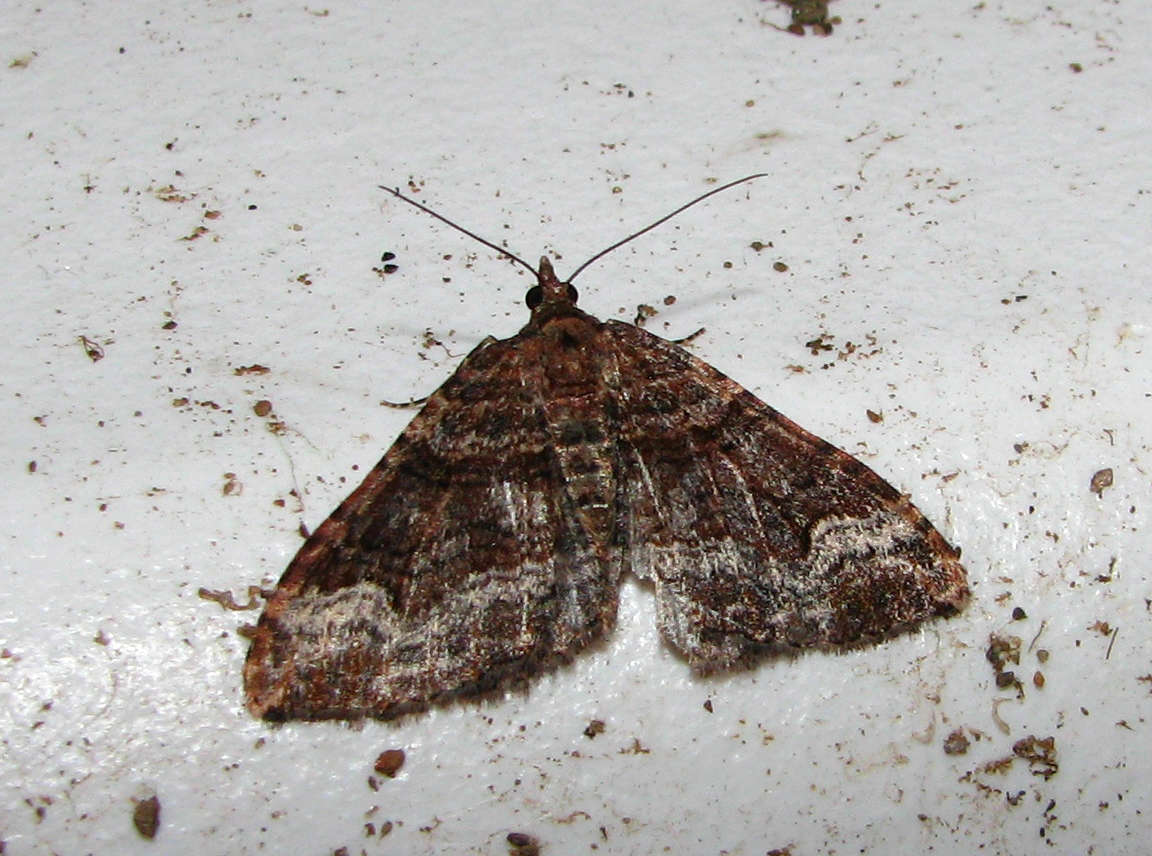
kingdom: Animalia
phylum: Arthropoda
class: Insecta
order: Lepidoptera
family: Geometridae
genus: Epyaxa
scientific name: Epyaxa subidaria
